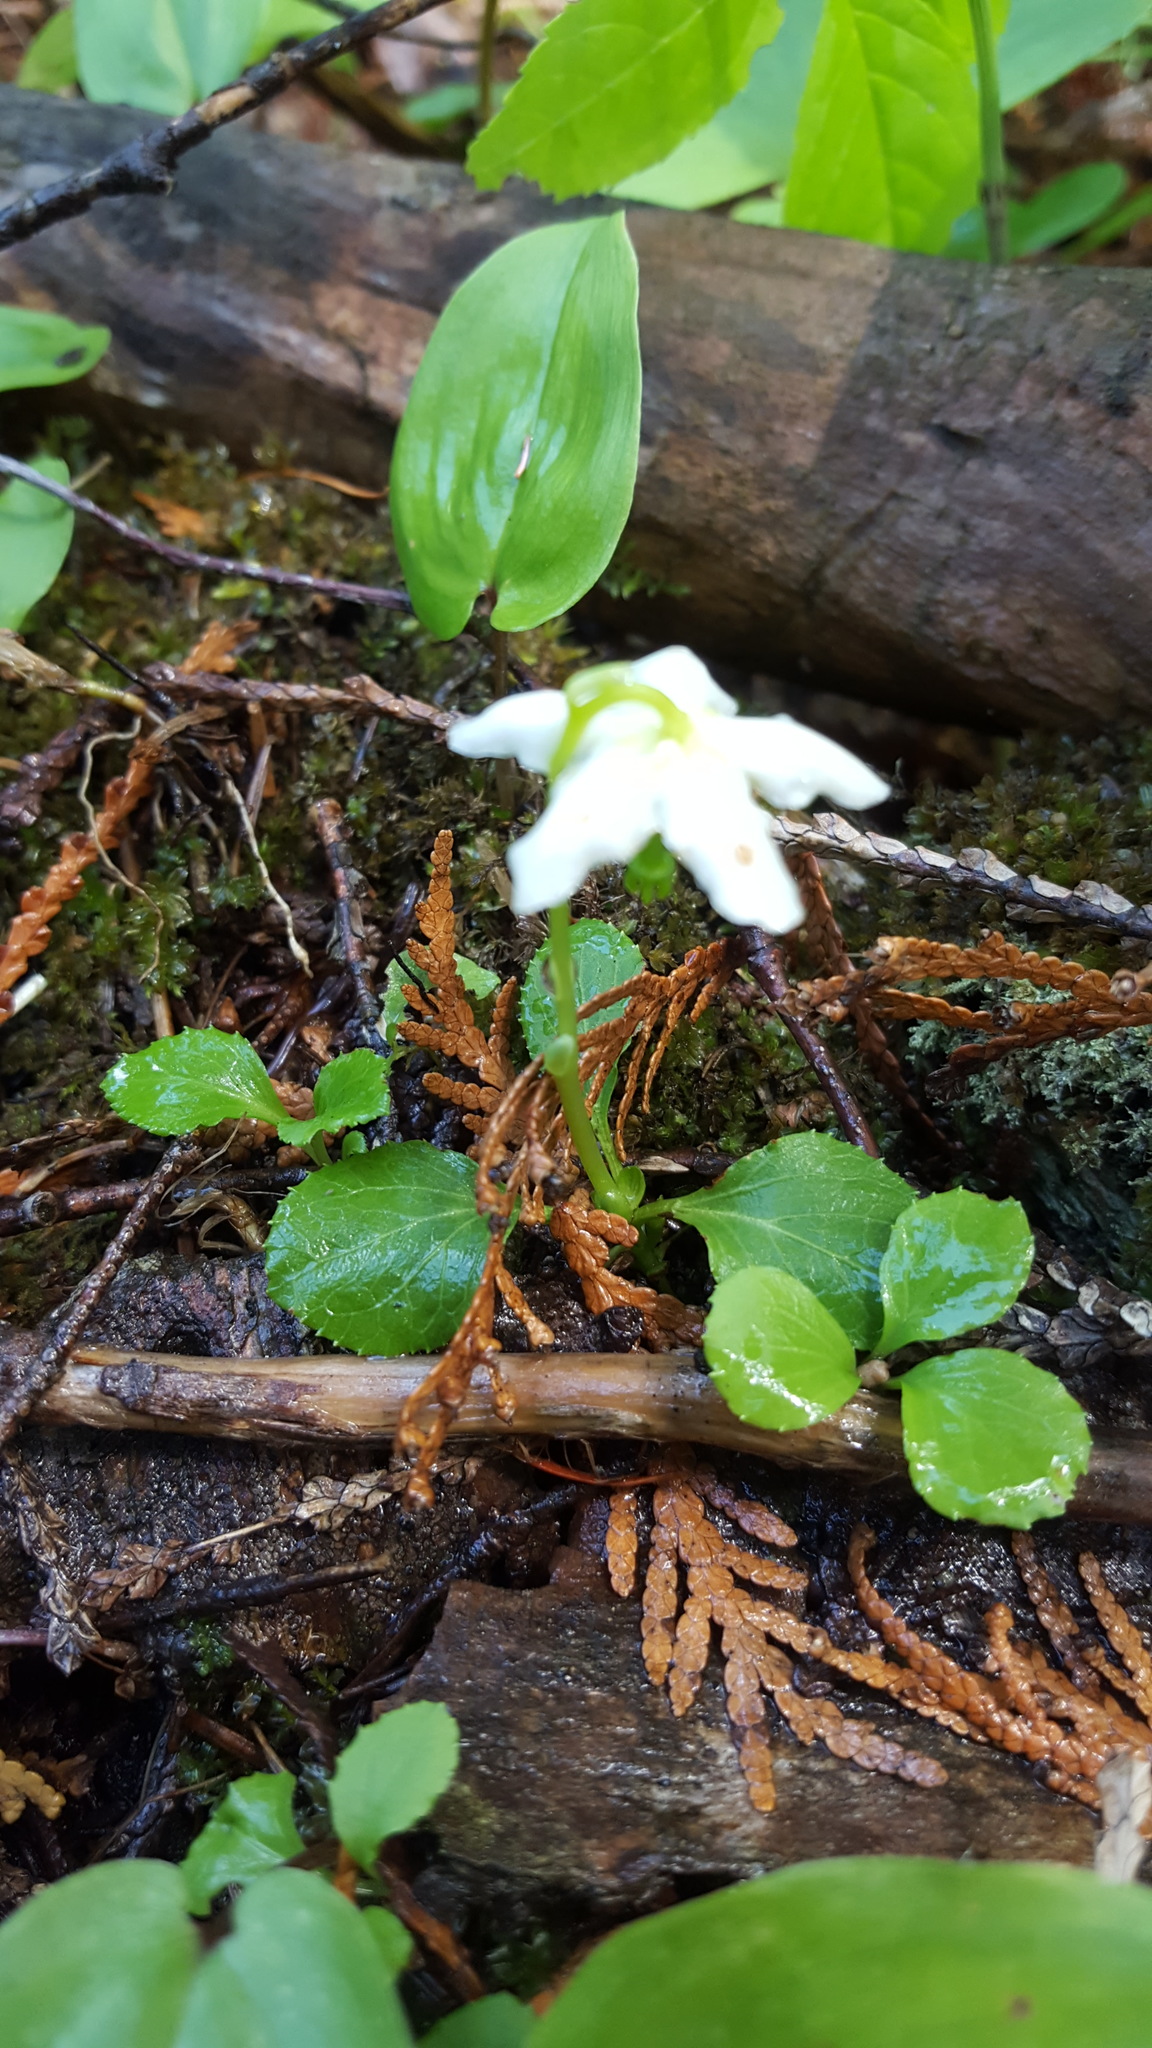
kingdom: Plantae
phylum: Tracheophyta
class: Magnoliopsida
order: Ericales
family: Ericaceae
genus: Moneses
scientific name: Moneses uniflora
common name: One-flowered wintergreen
